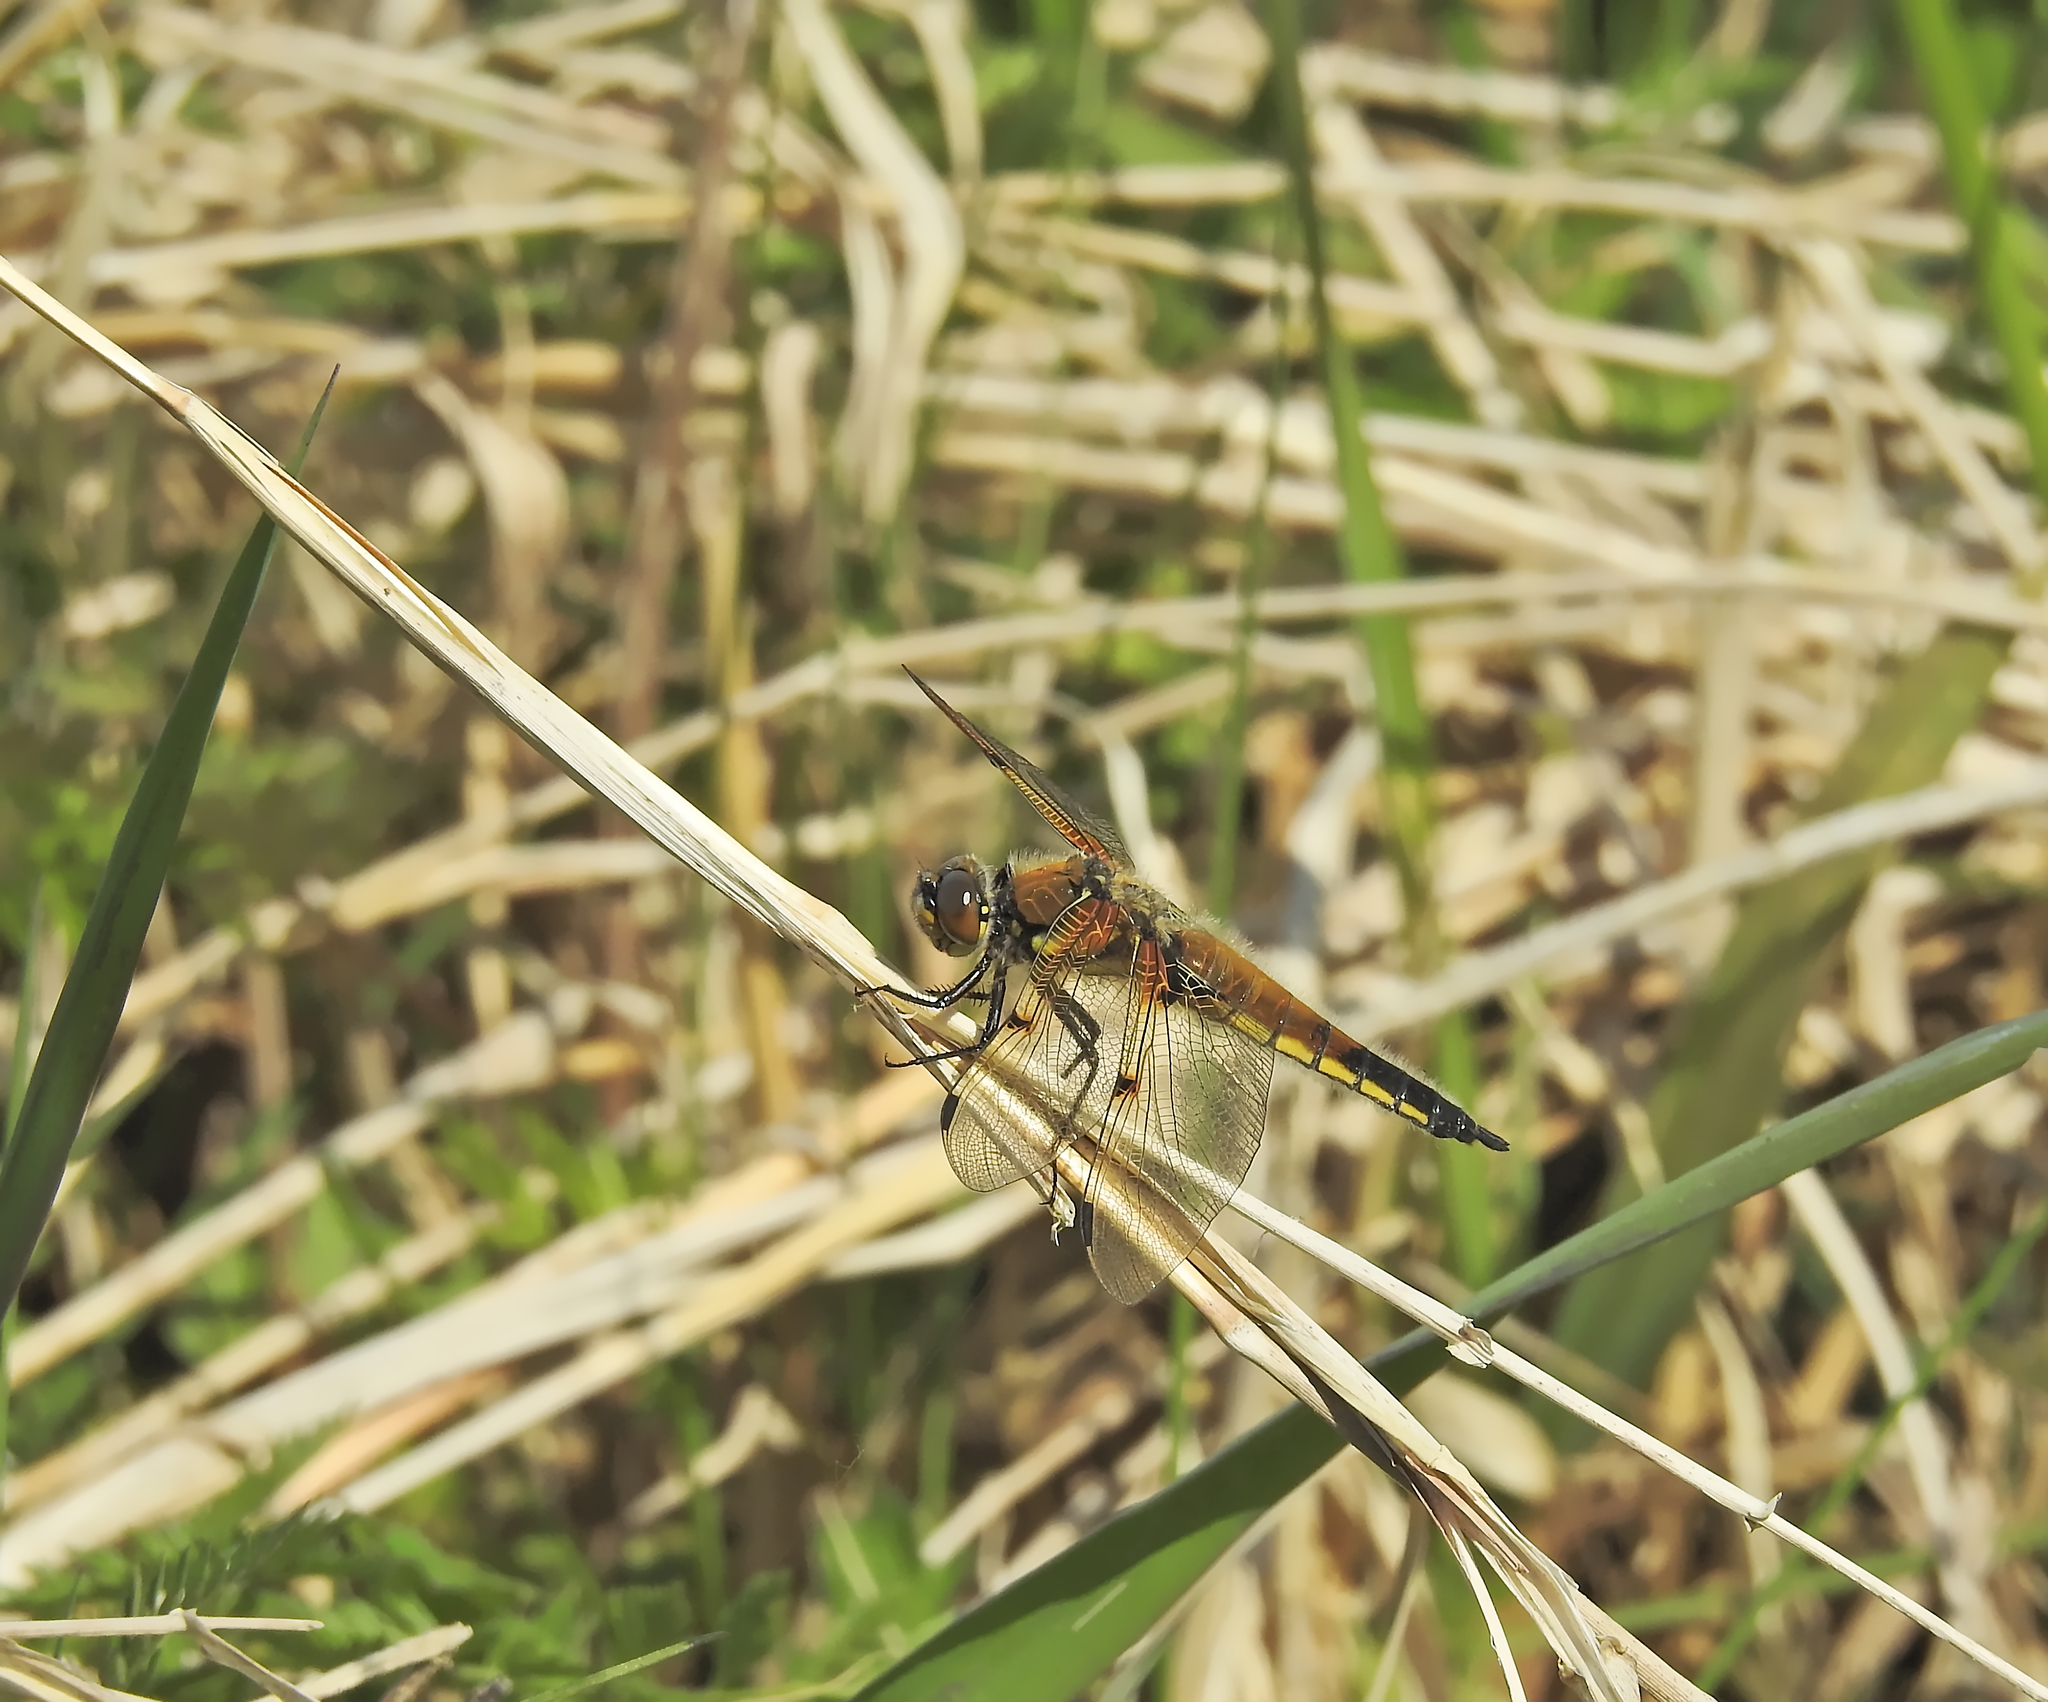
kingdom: Animalia
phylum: Arthropoda
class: Insecta
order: Odonata
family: Libellulidae
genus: Libellula
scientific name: Libellula quadrimaculata
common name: Four-spotted chaser
